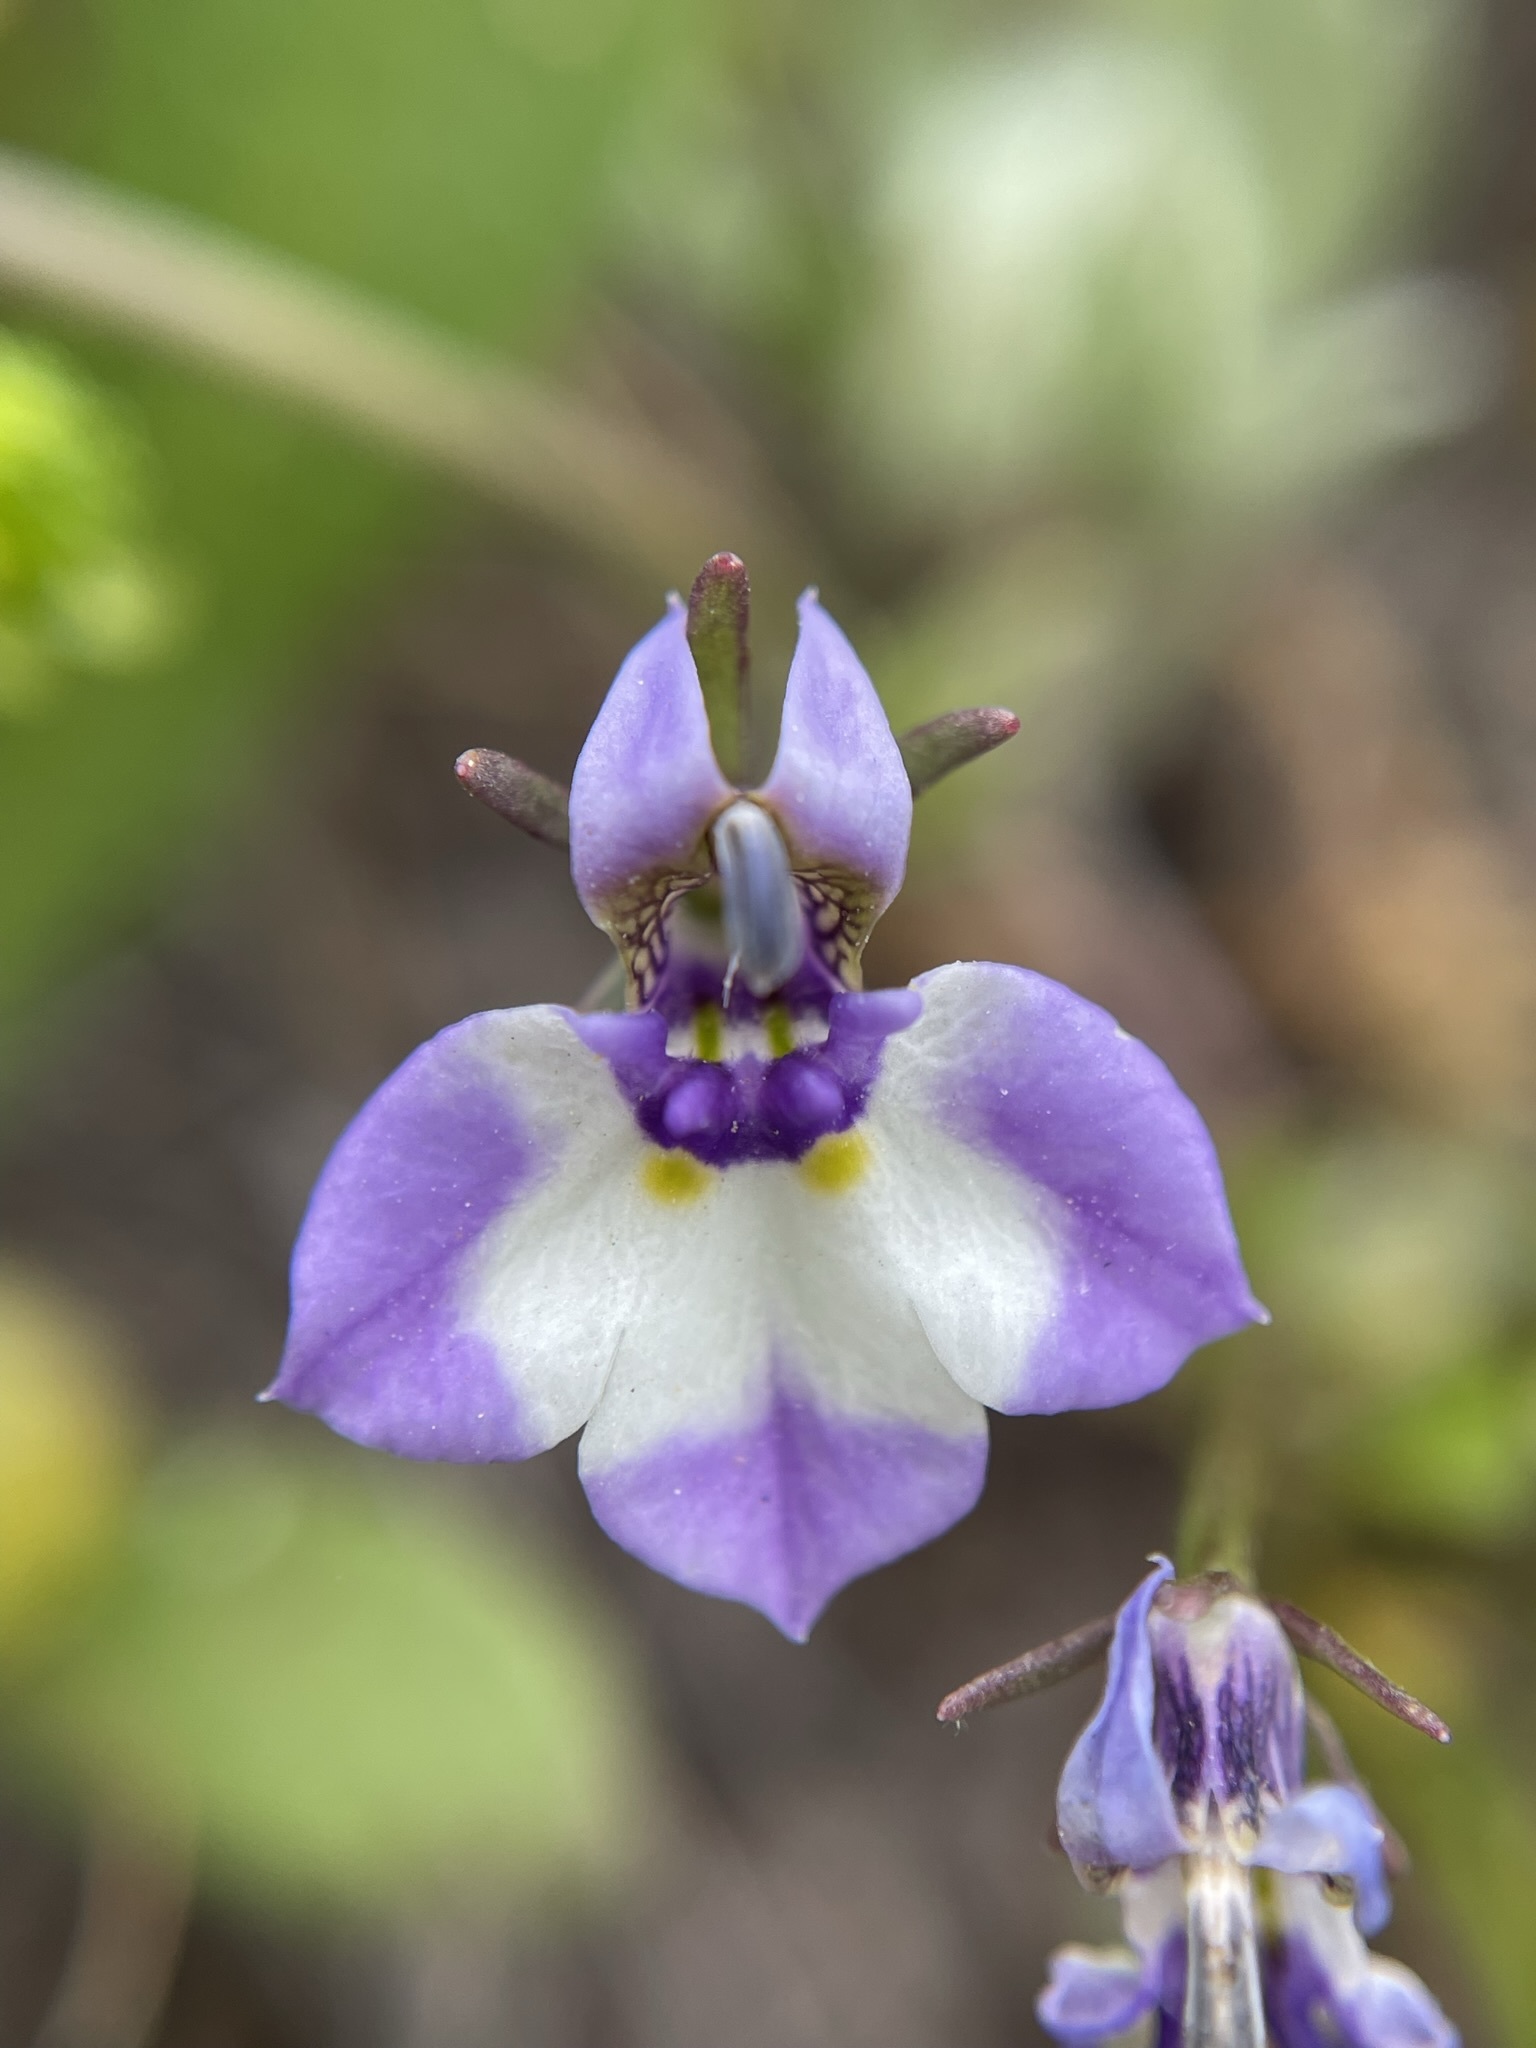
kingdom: Plantae
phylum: Tracheophyta
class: Magnoliopsida
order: Asterales
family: Campanulaceae
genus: Downingia
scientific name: Downingia bicornuta
